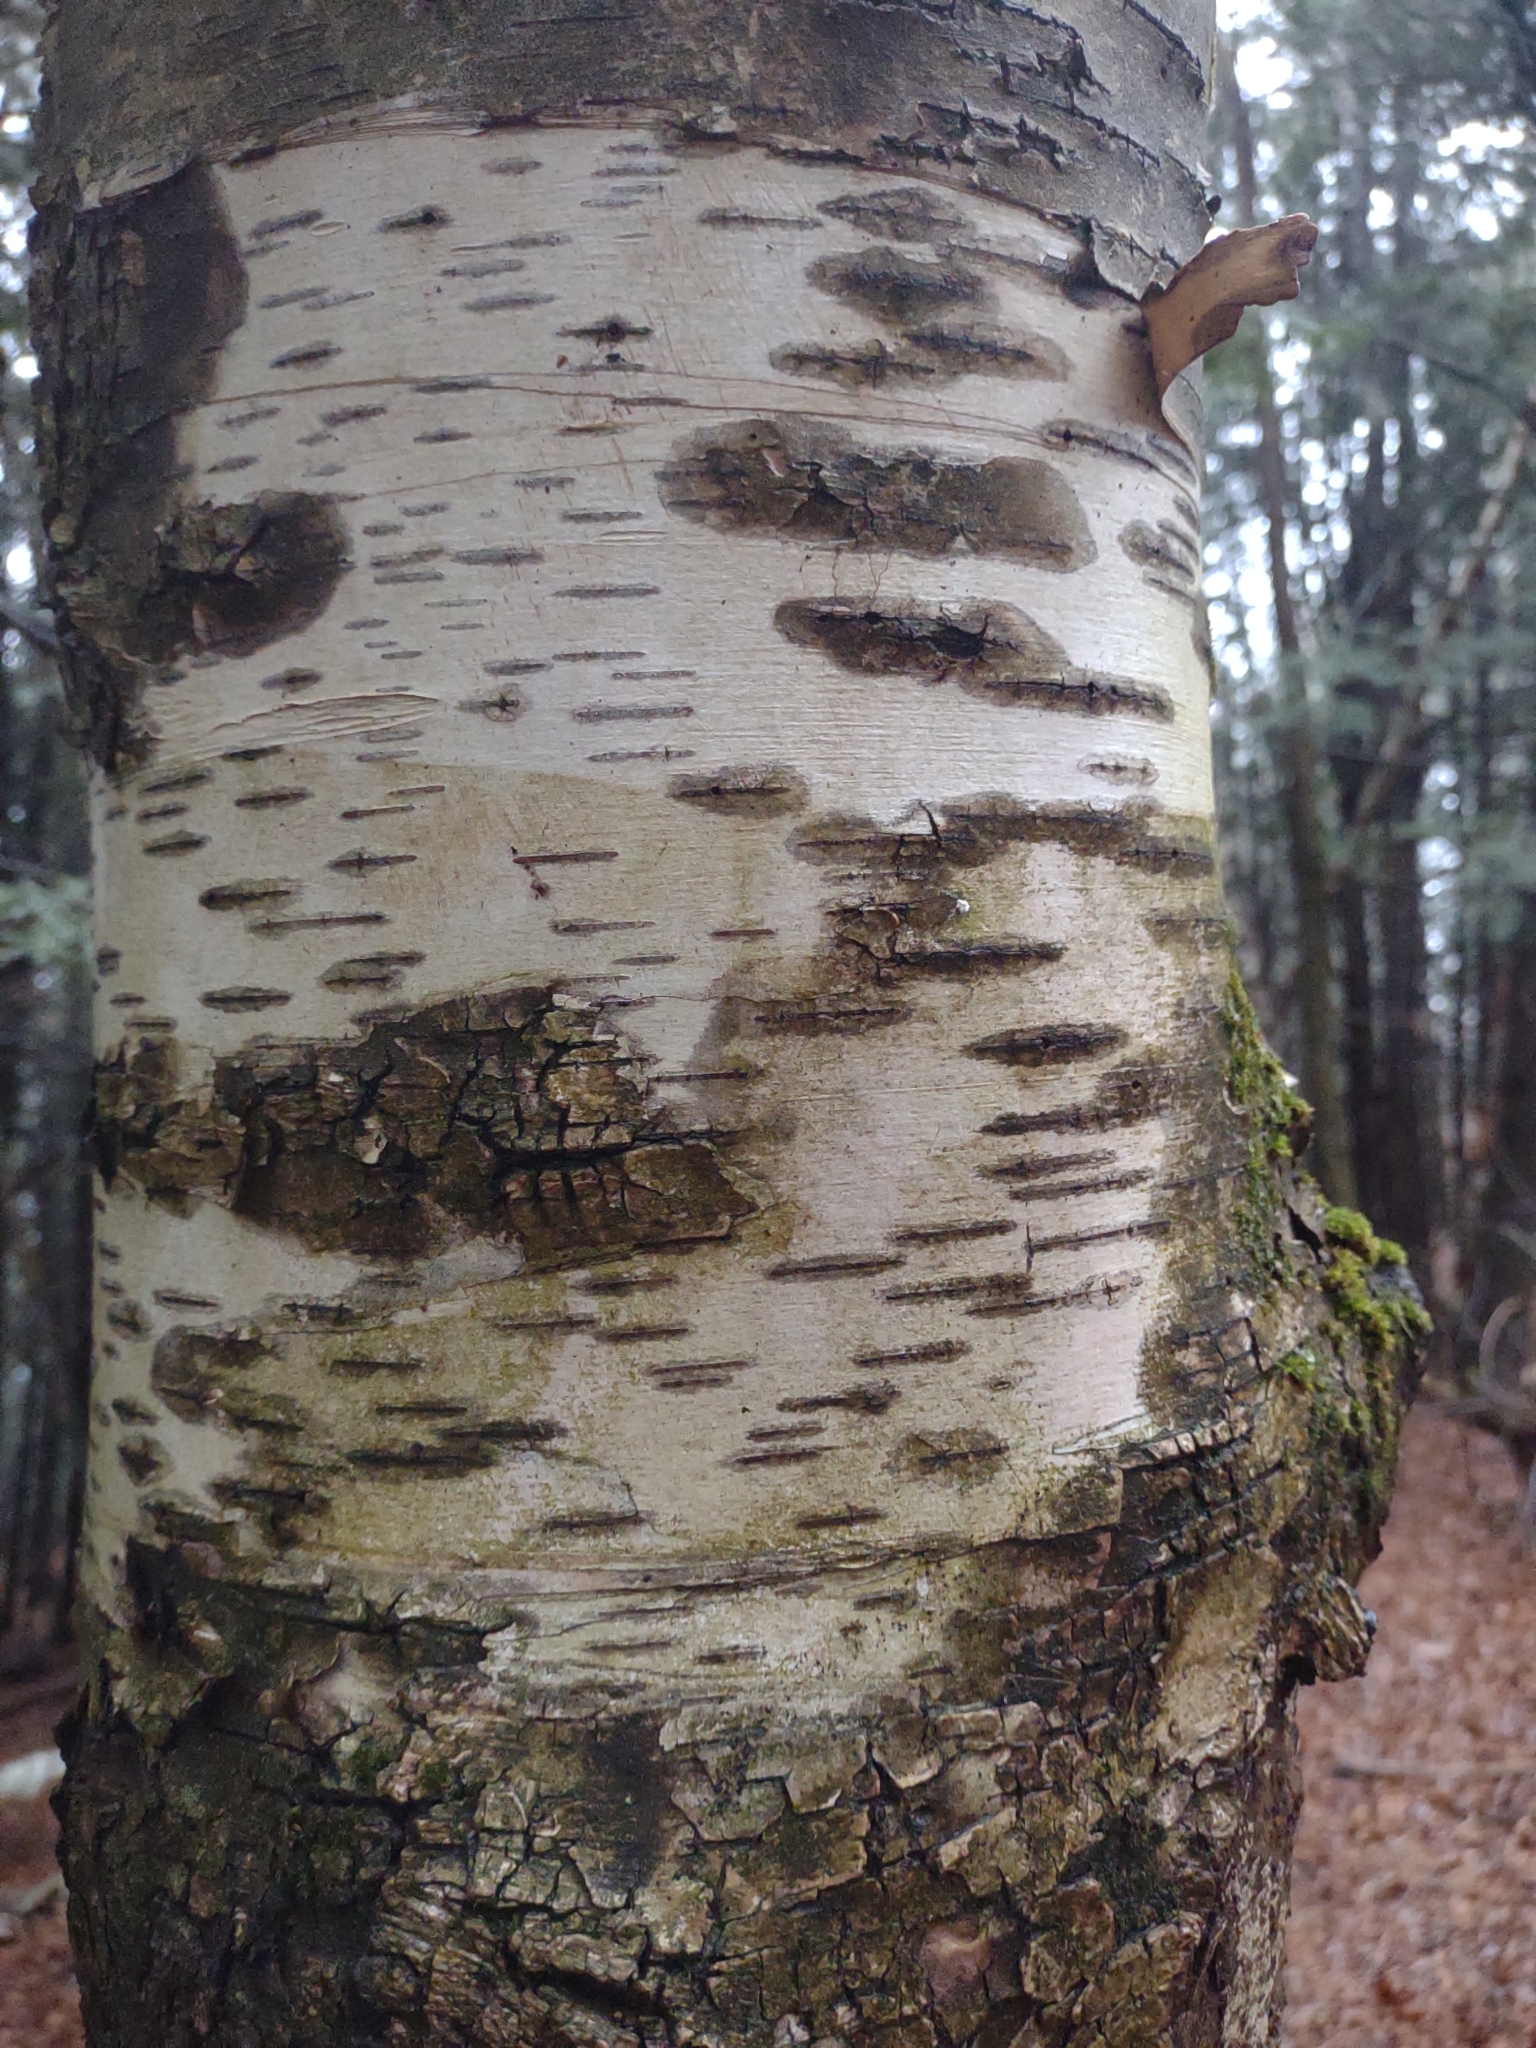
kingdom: Plantae
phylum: Tracheophyta
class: Magnoliopsida
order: Fagales
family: Betulaceae
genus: Betula
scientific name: Betula papyrifera
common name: Paper birch
